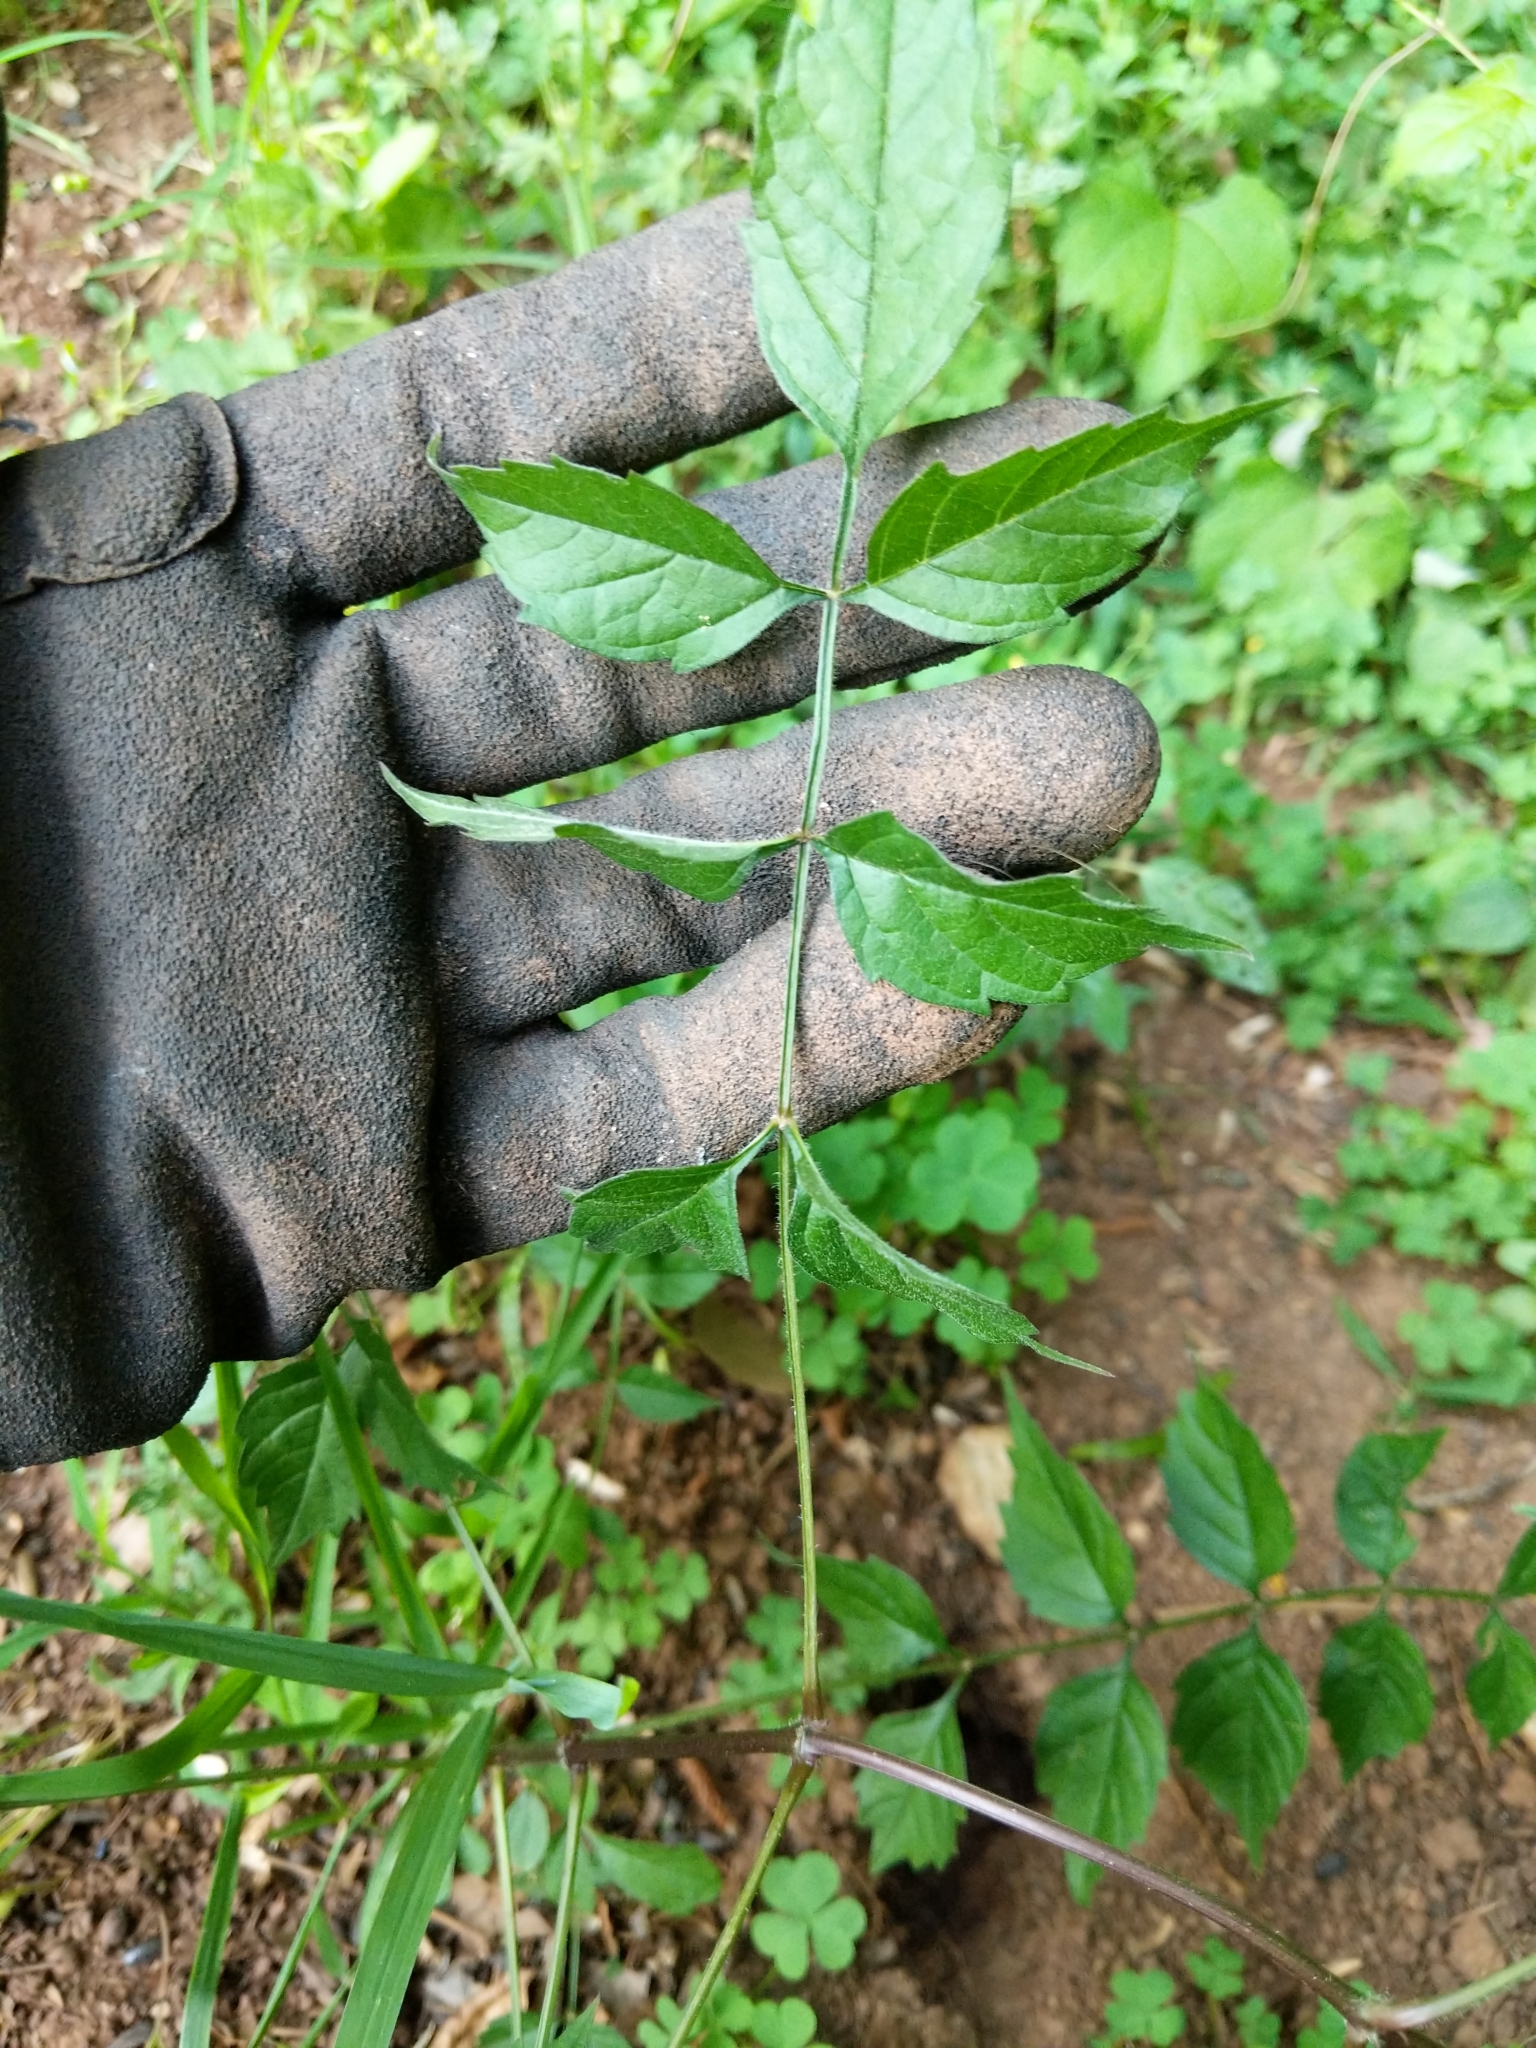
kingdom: Plantae
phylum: Tracheophyta
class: Magnoliopsida
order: Lamiales
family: Bignoniaceae
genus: Campsis
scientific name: Campsis radicans
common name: Trumpet-creeper
